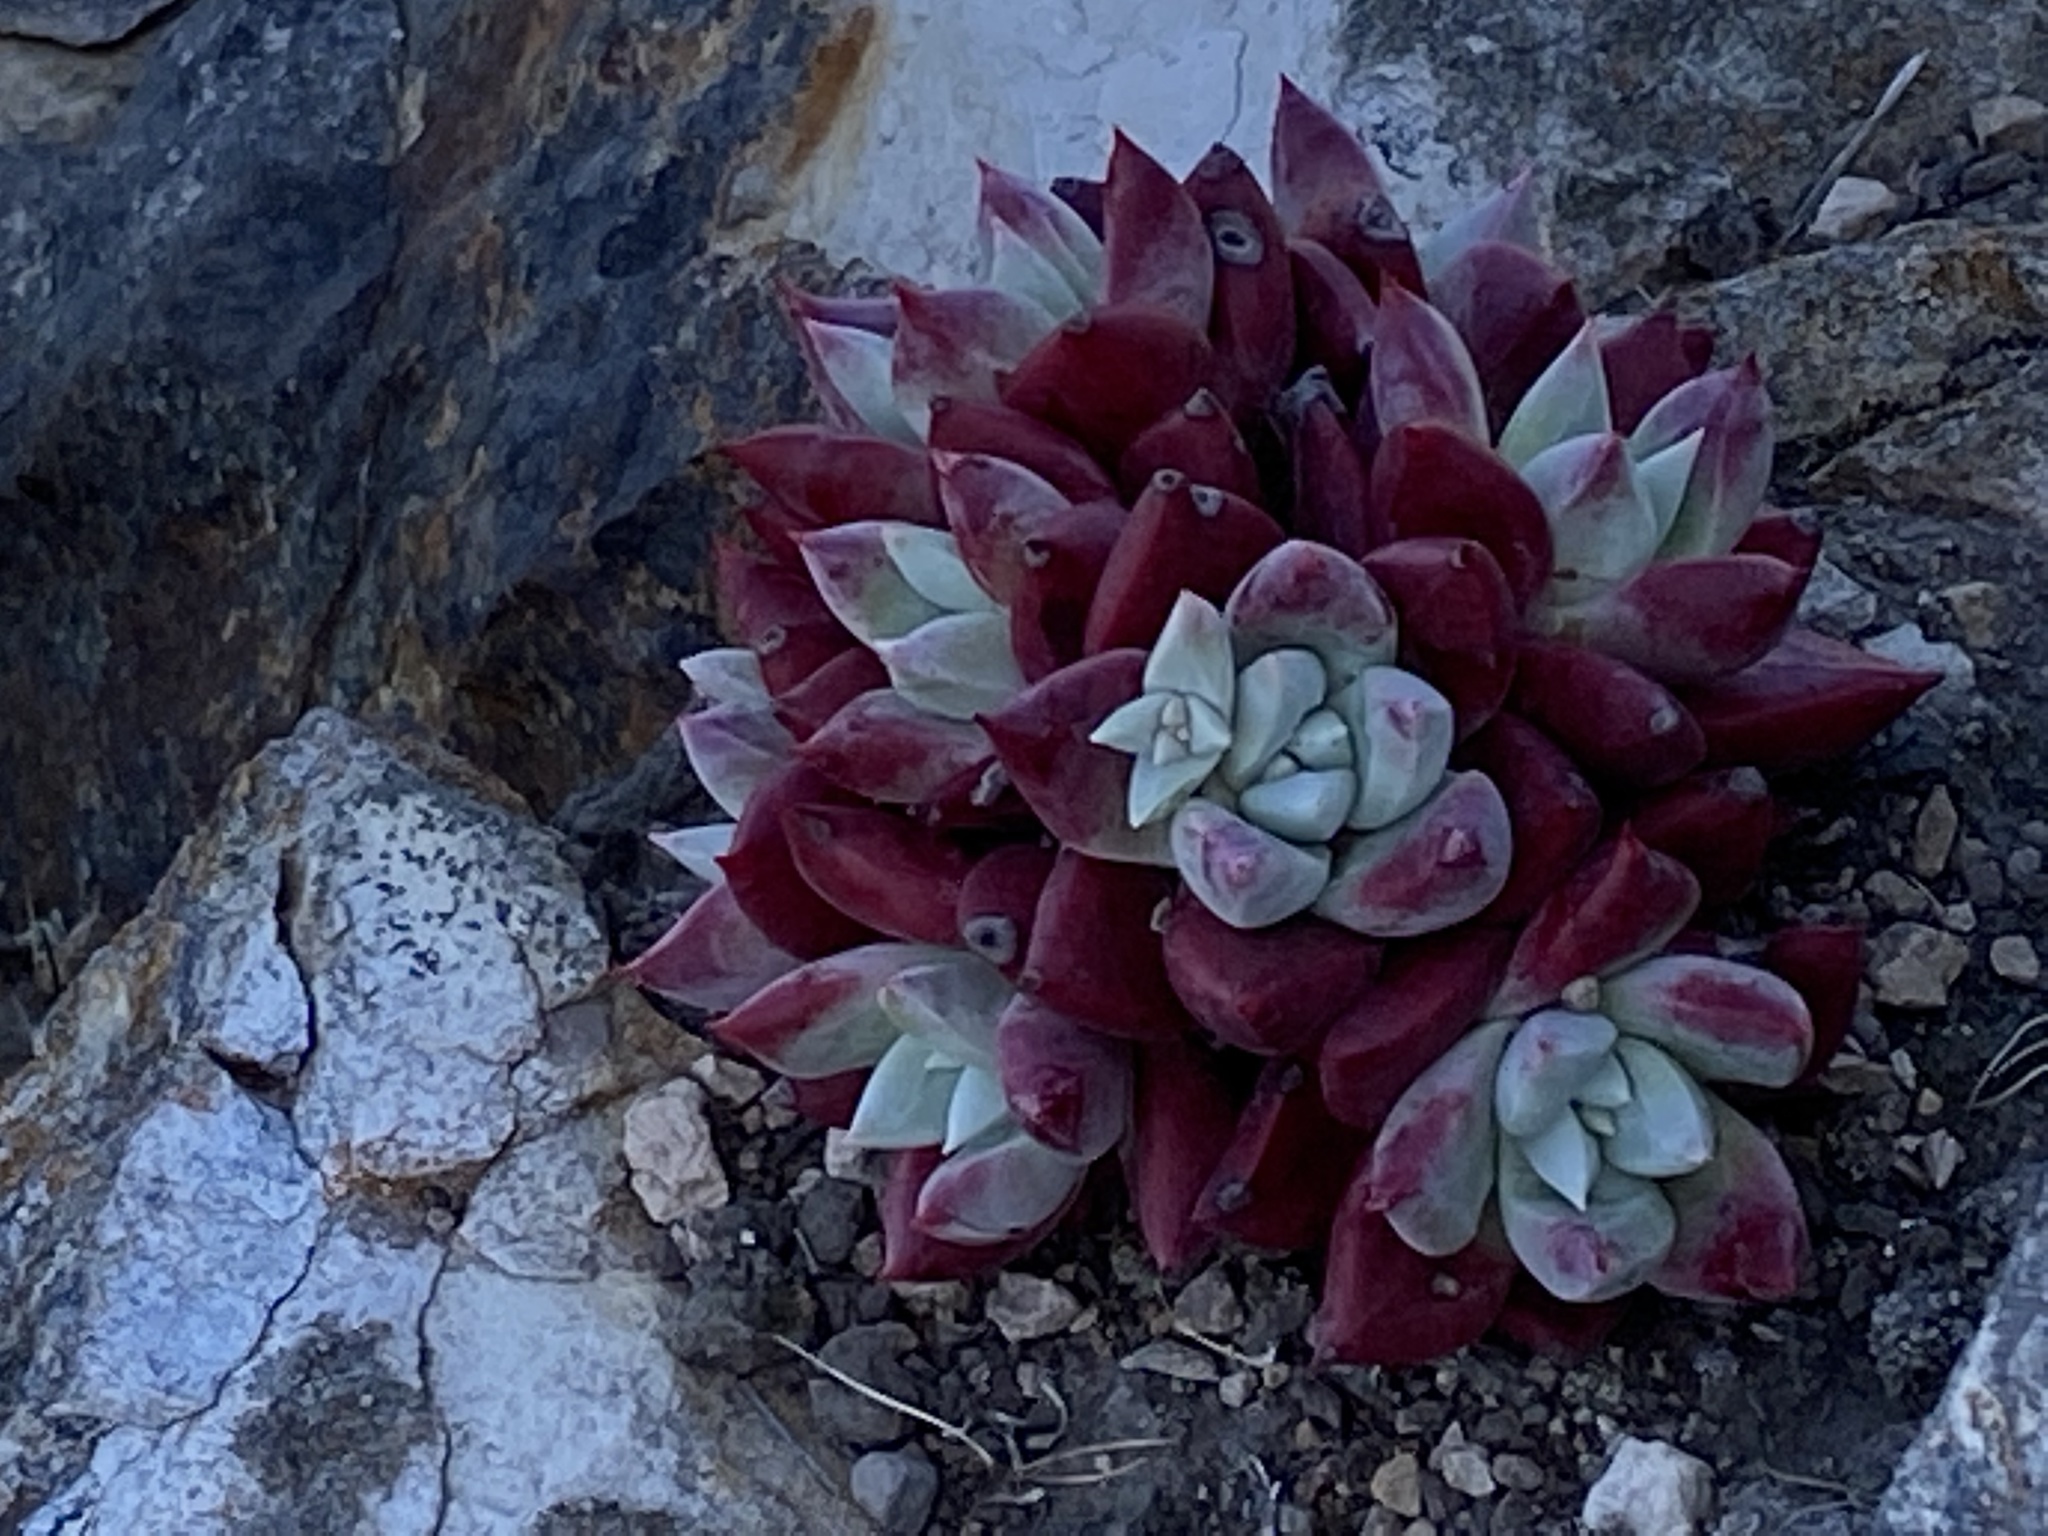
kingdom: Plantae
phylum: Tracheophyta
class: Magnoliopsida
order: Saxifragales
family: Crassulaceae
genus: Dudleya
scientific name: Dudleya farinosa
